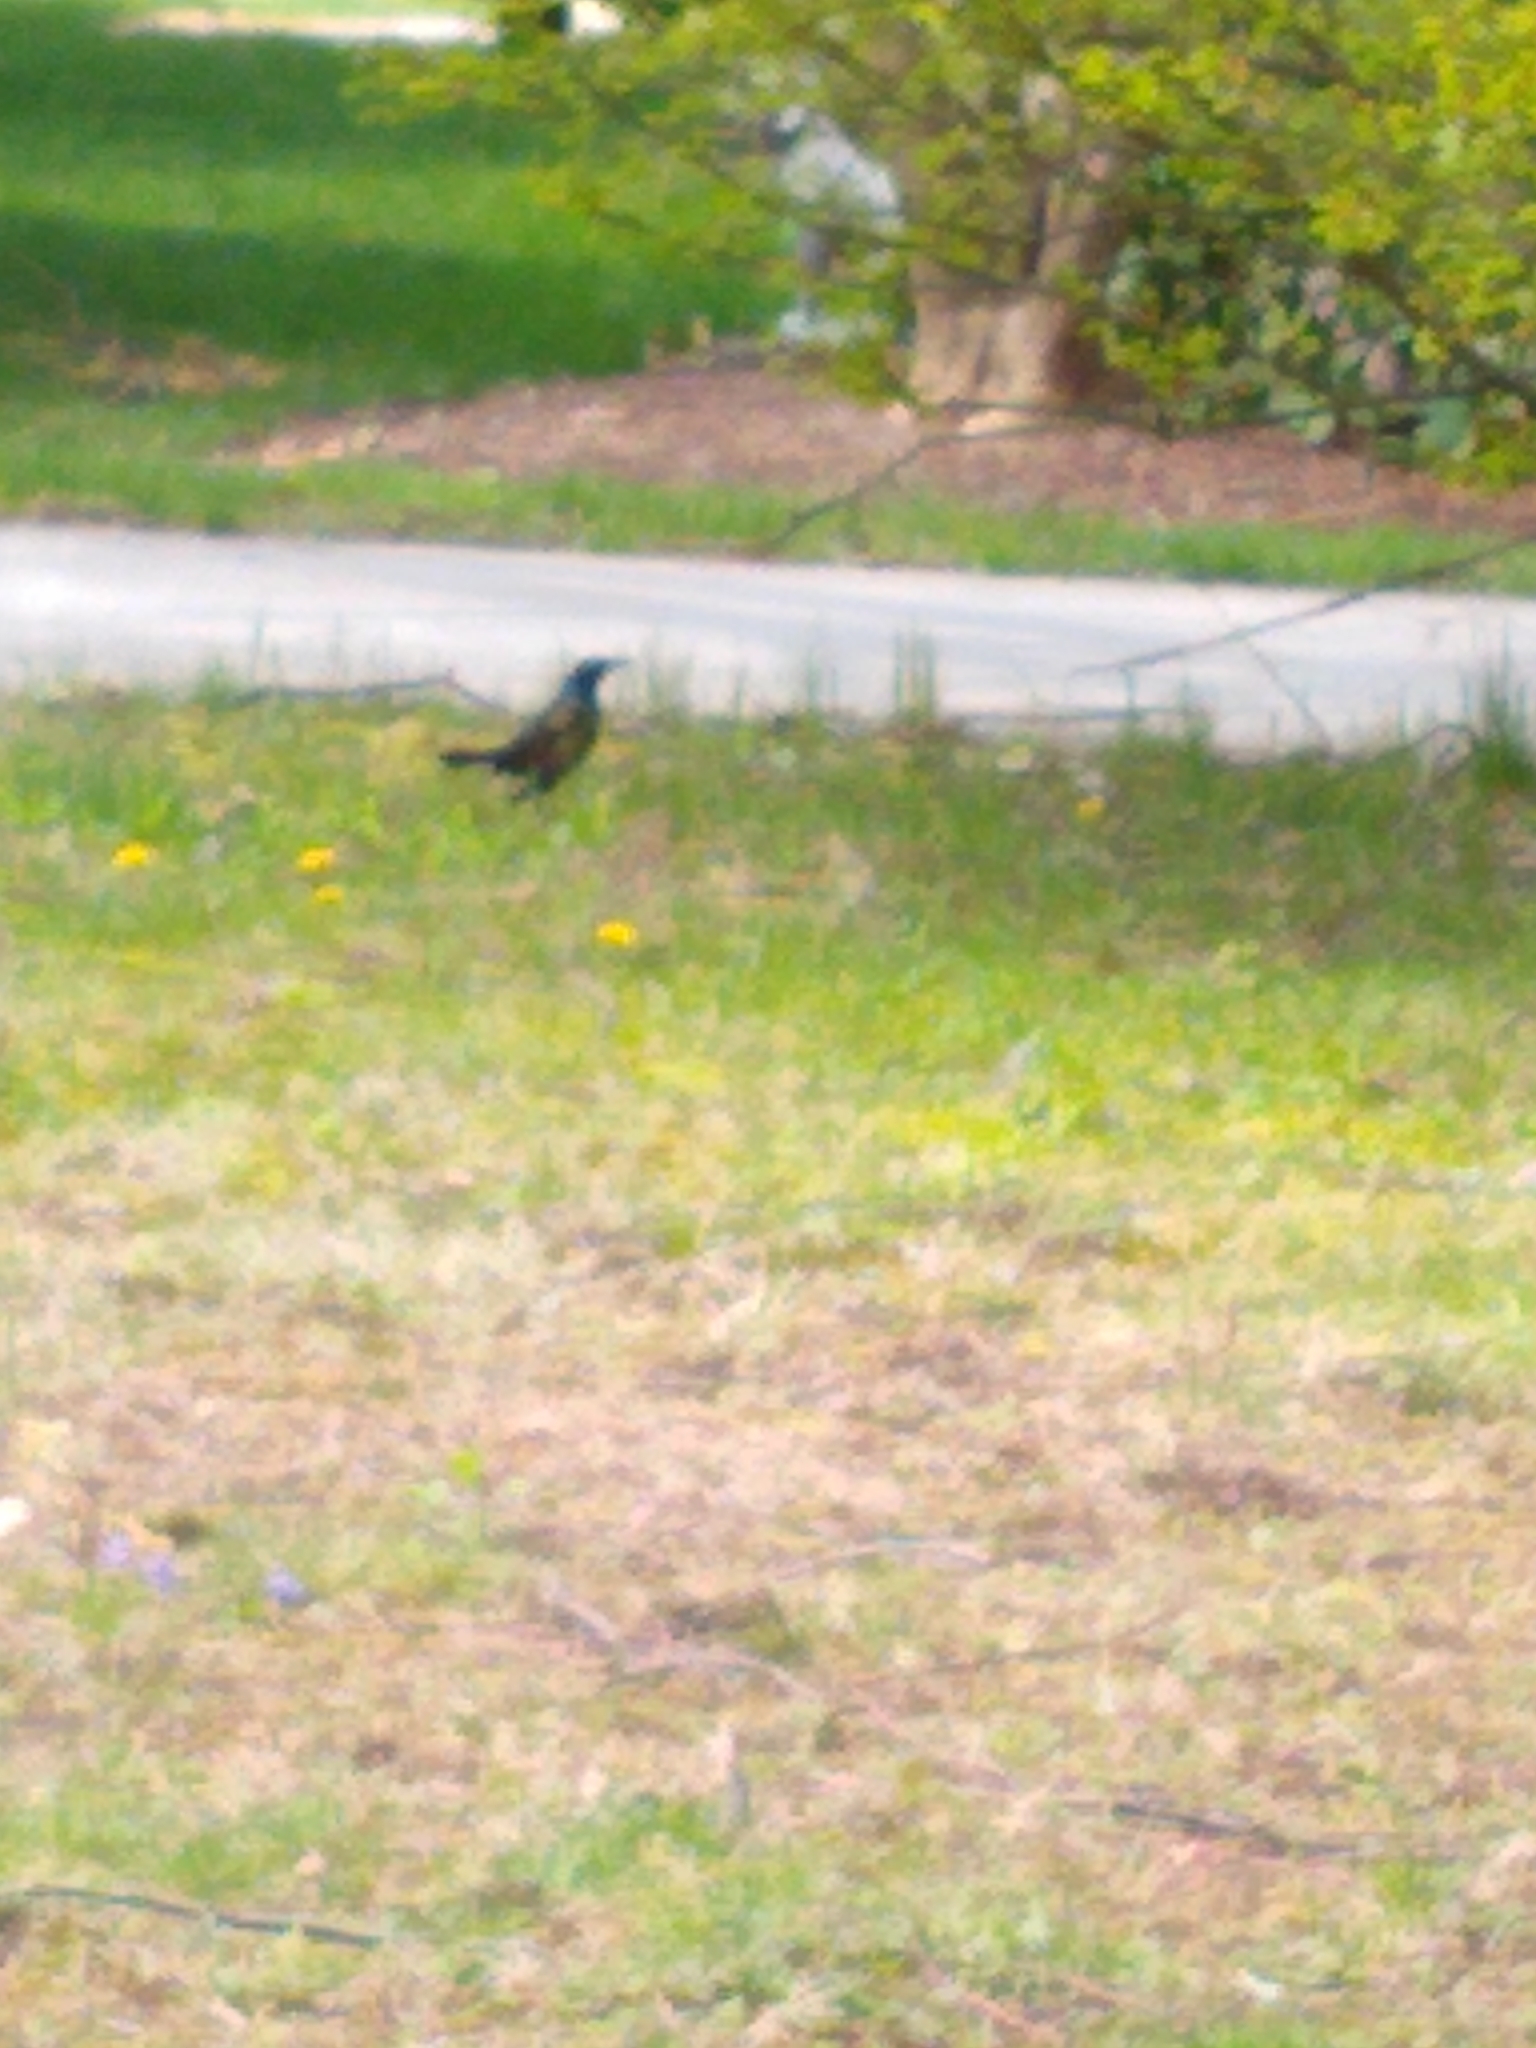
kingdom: Animalia
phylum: Chordata
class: Aves
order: Passeriformes
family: Icteridae
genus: Quiscalus
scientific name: Quiscalus quiscula
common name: Common grackle
